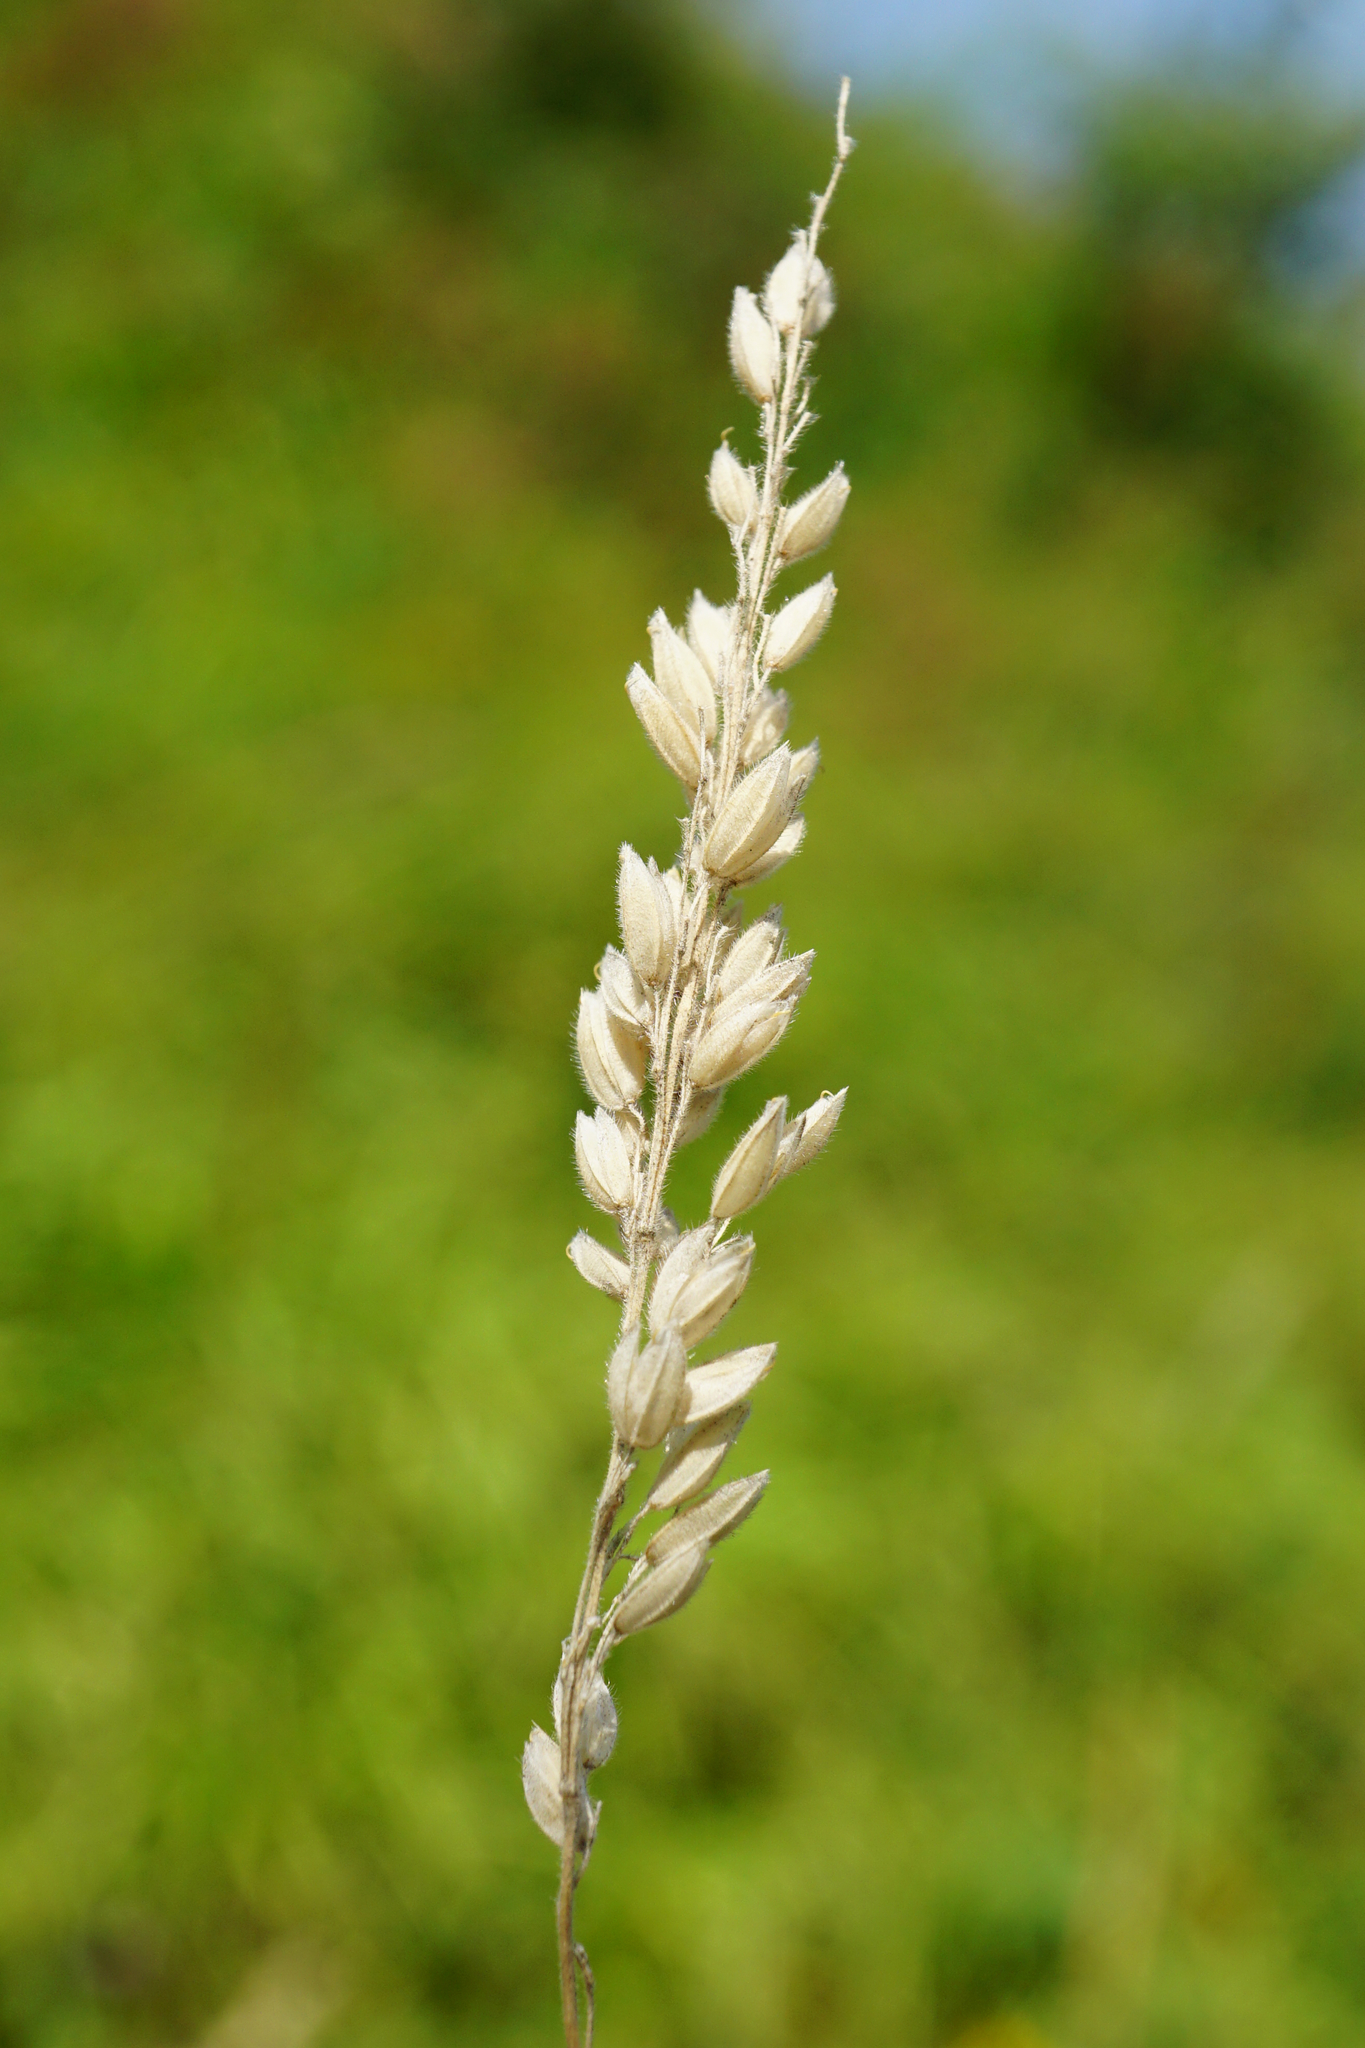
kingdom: Plantae
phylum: Tracheophyta
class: Liliopsida
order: Poales
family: Poaceae
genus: Holcus
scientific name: Holcus lanatus
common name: Yorkshire-fog
